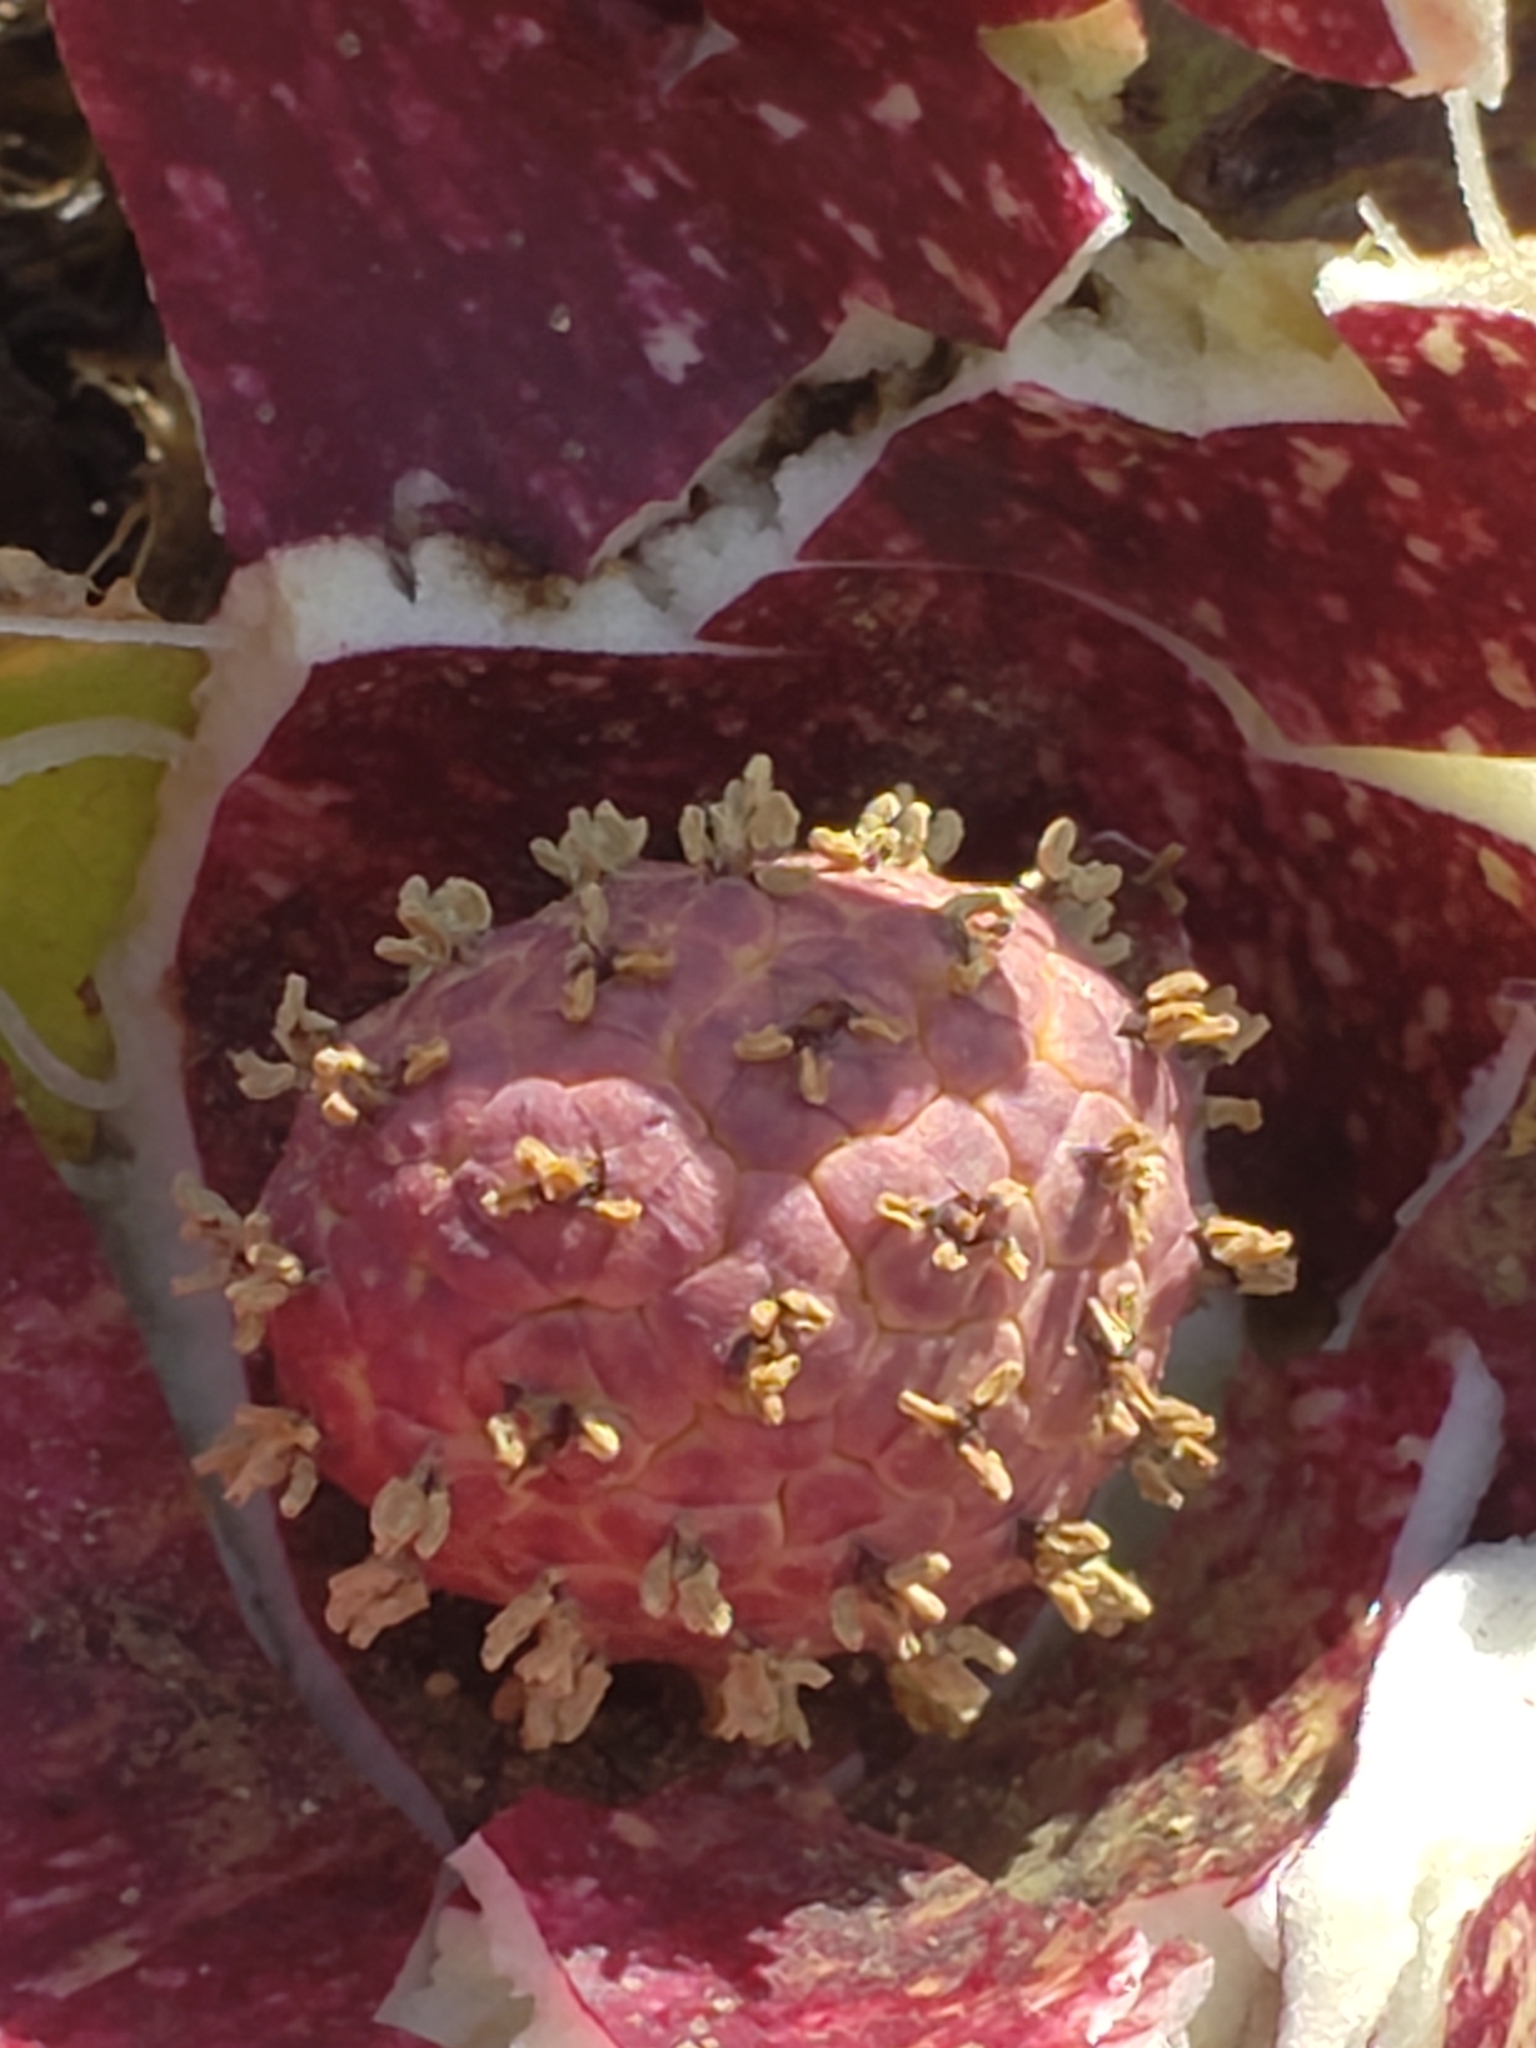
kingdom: Plantae
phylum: Tracheophyta
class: Liliopsida
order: Alismatales
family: Araceae
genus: Symplocarpus
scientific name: Symplocarpus foetidus
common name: Eastern skunk cabbage
